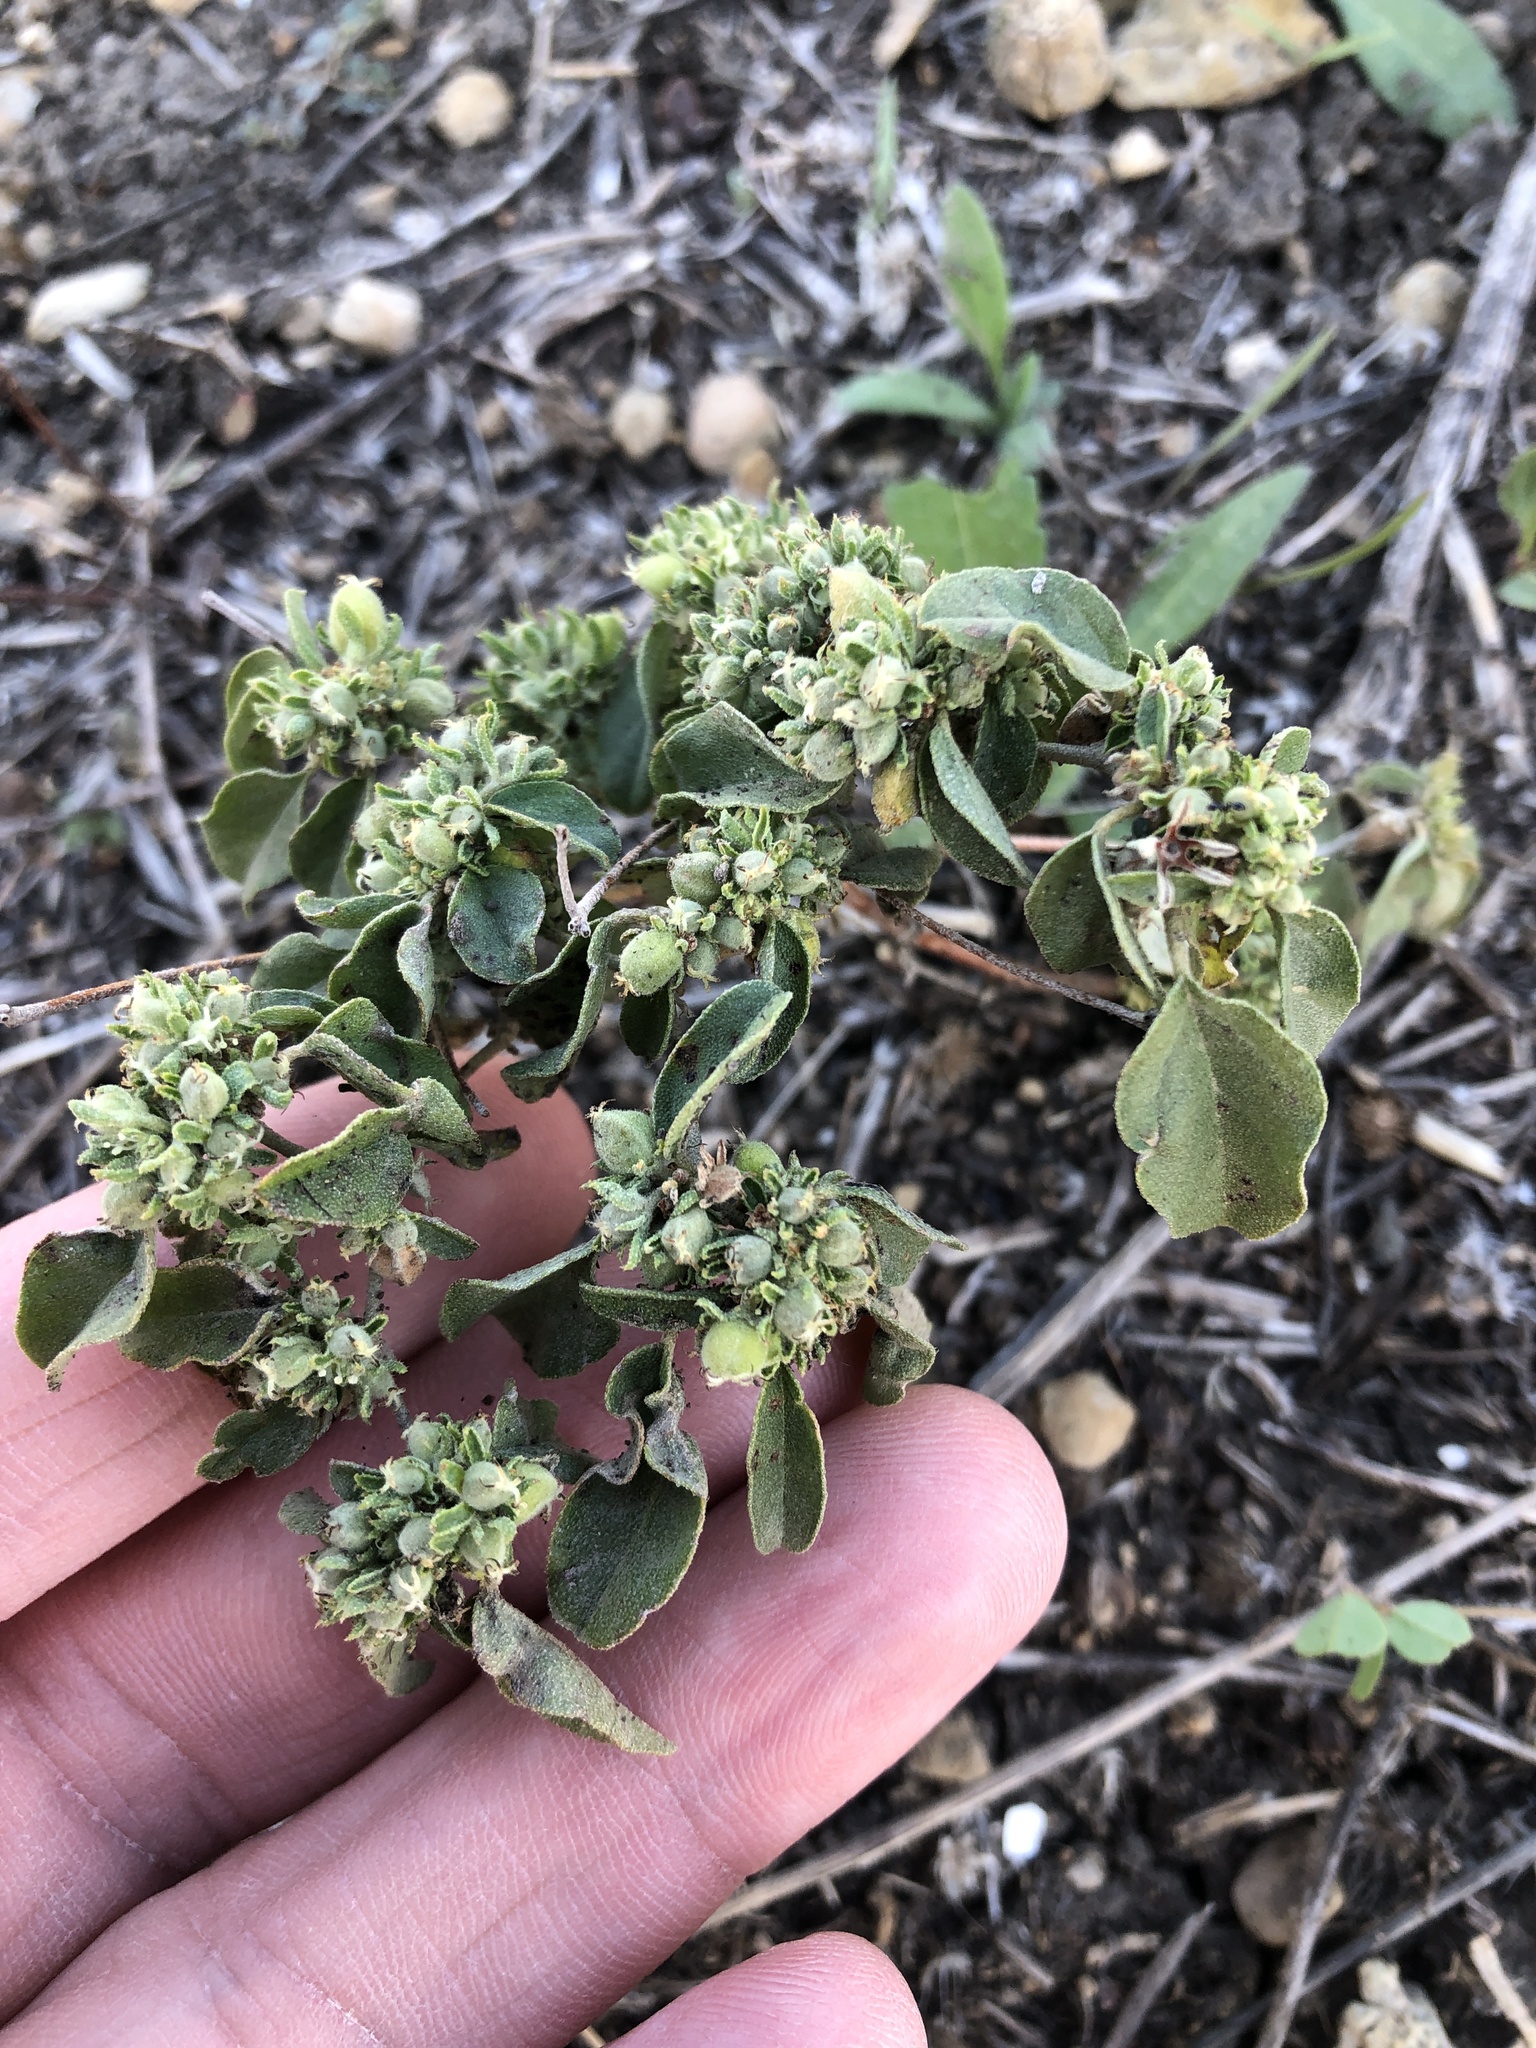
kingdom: Plantae
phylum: Tracheophyta
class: Magnoliopsida
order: Malpighiales
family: Euphorbiaceae
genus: Croton
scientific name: Croton monanthogynus
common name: One-seed croton
